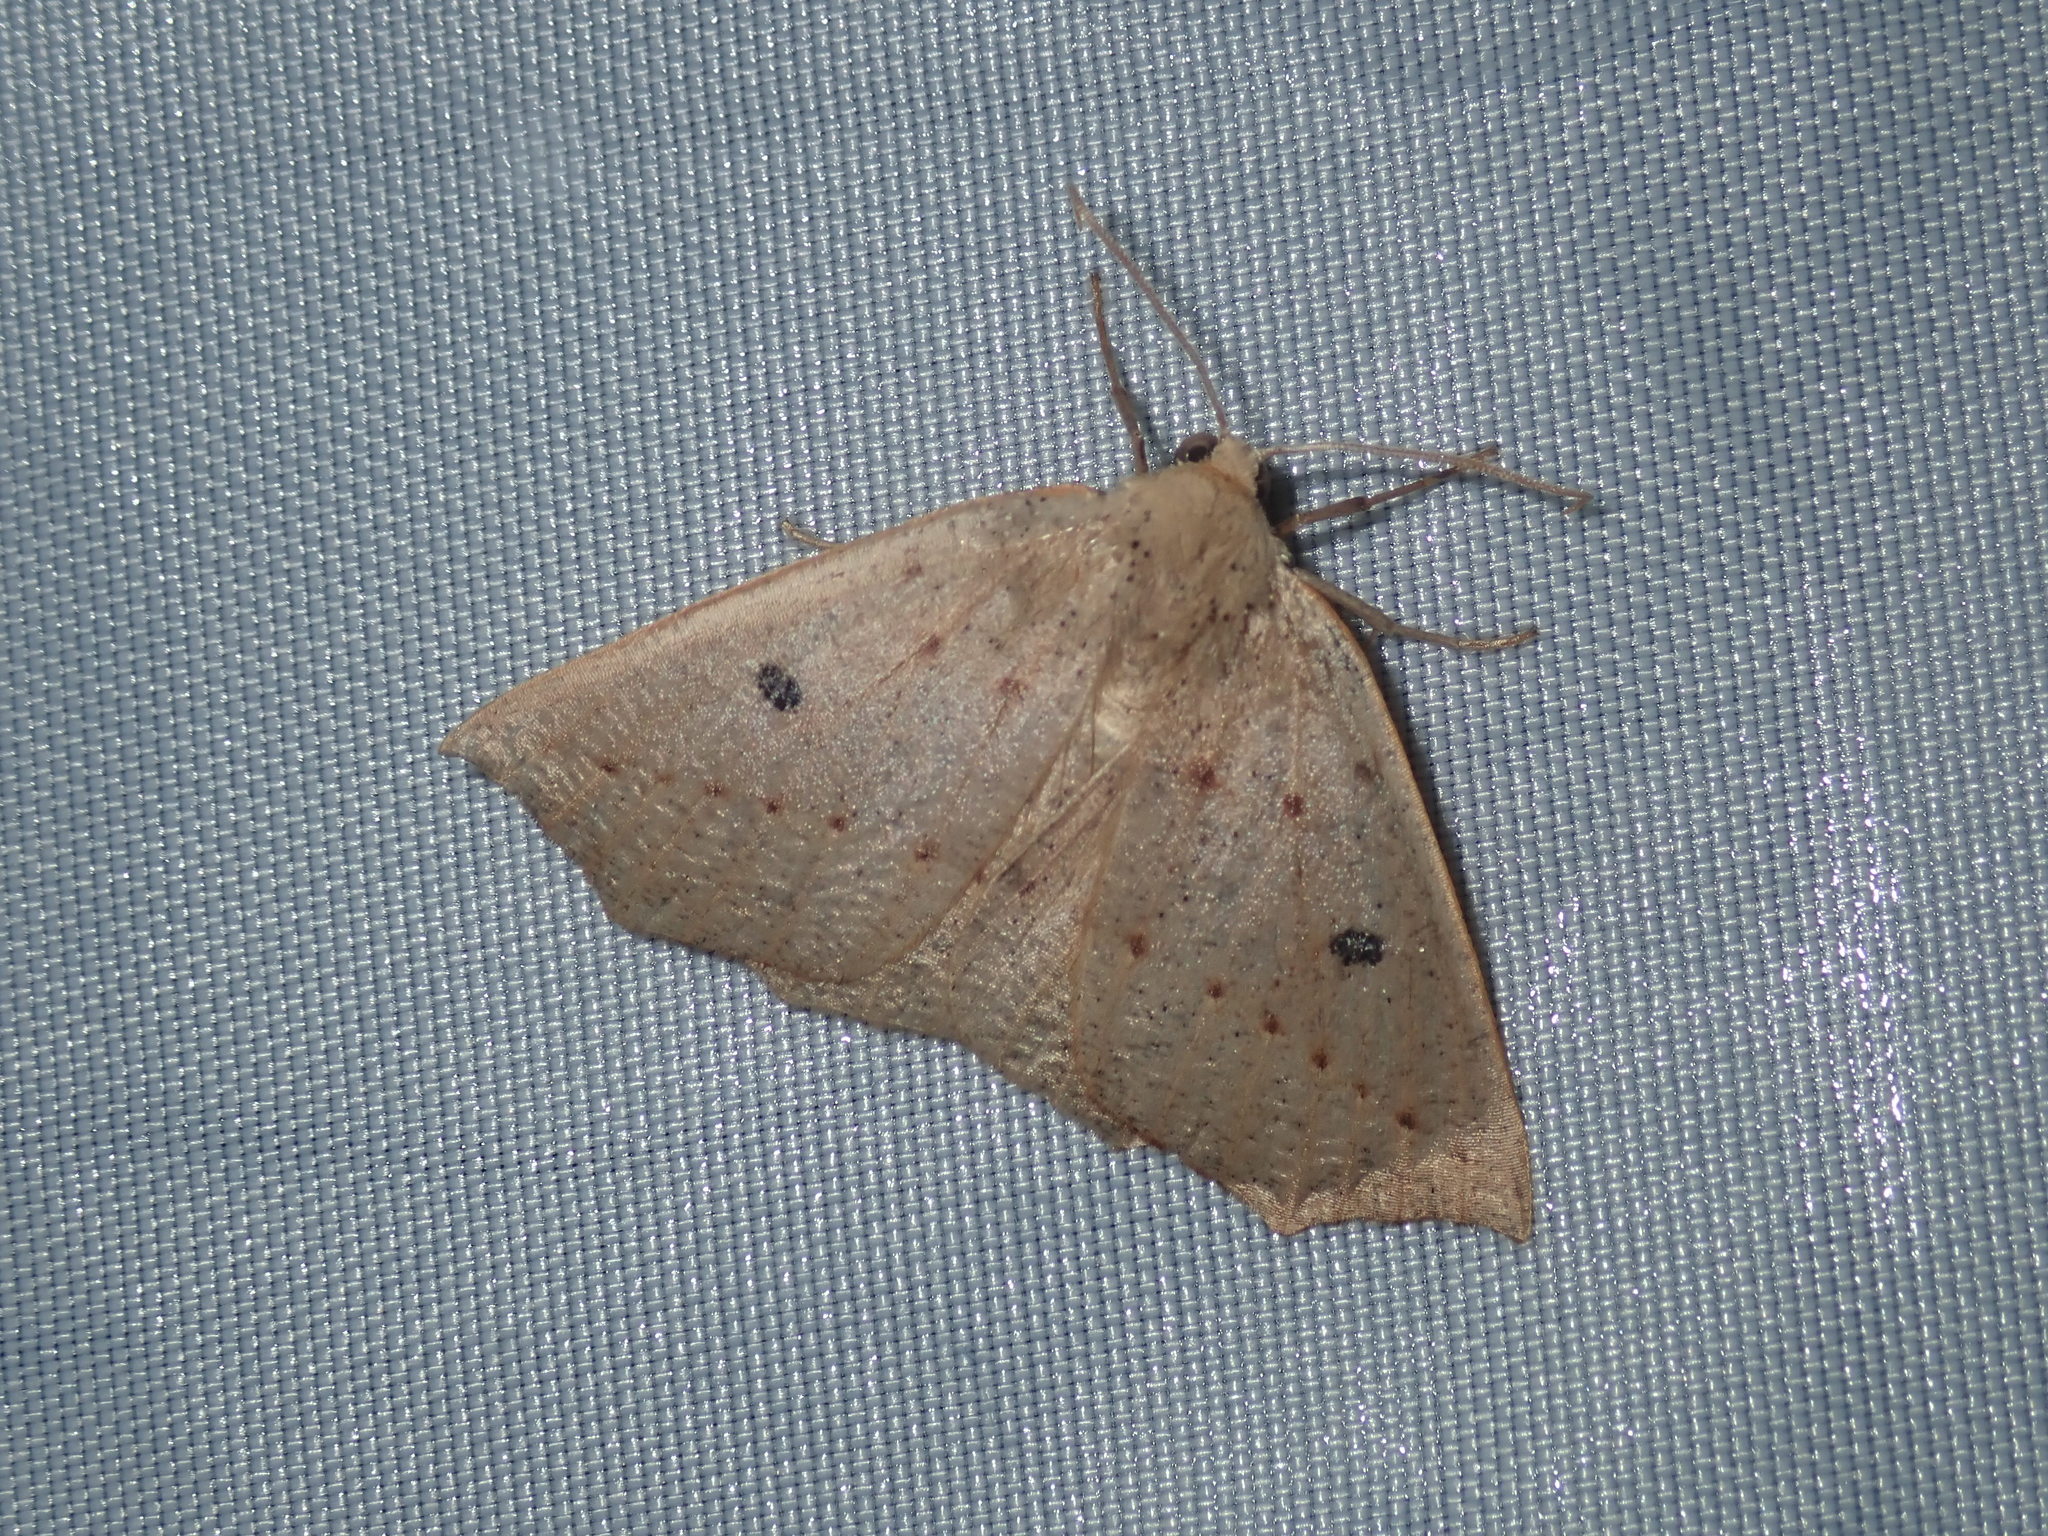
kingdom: Animalia
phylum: Arthropoda
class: Insecta
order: Lepidoptera
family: Geometridae
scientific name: Geometridae
